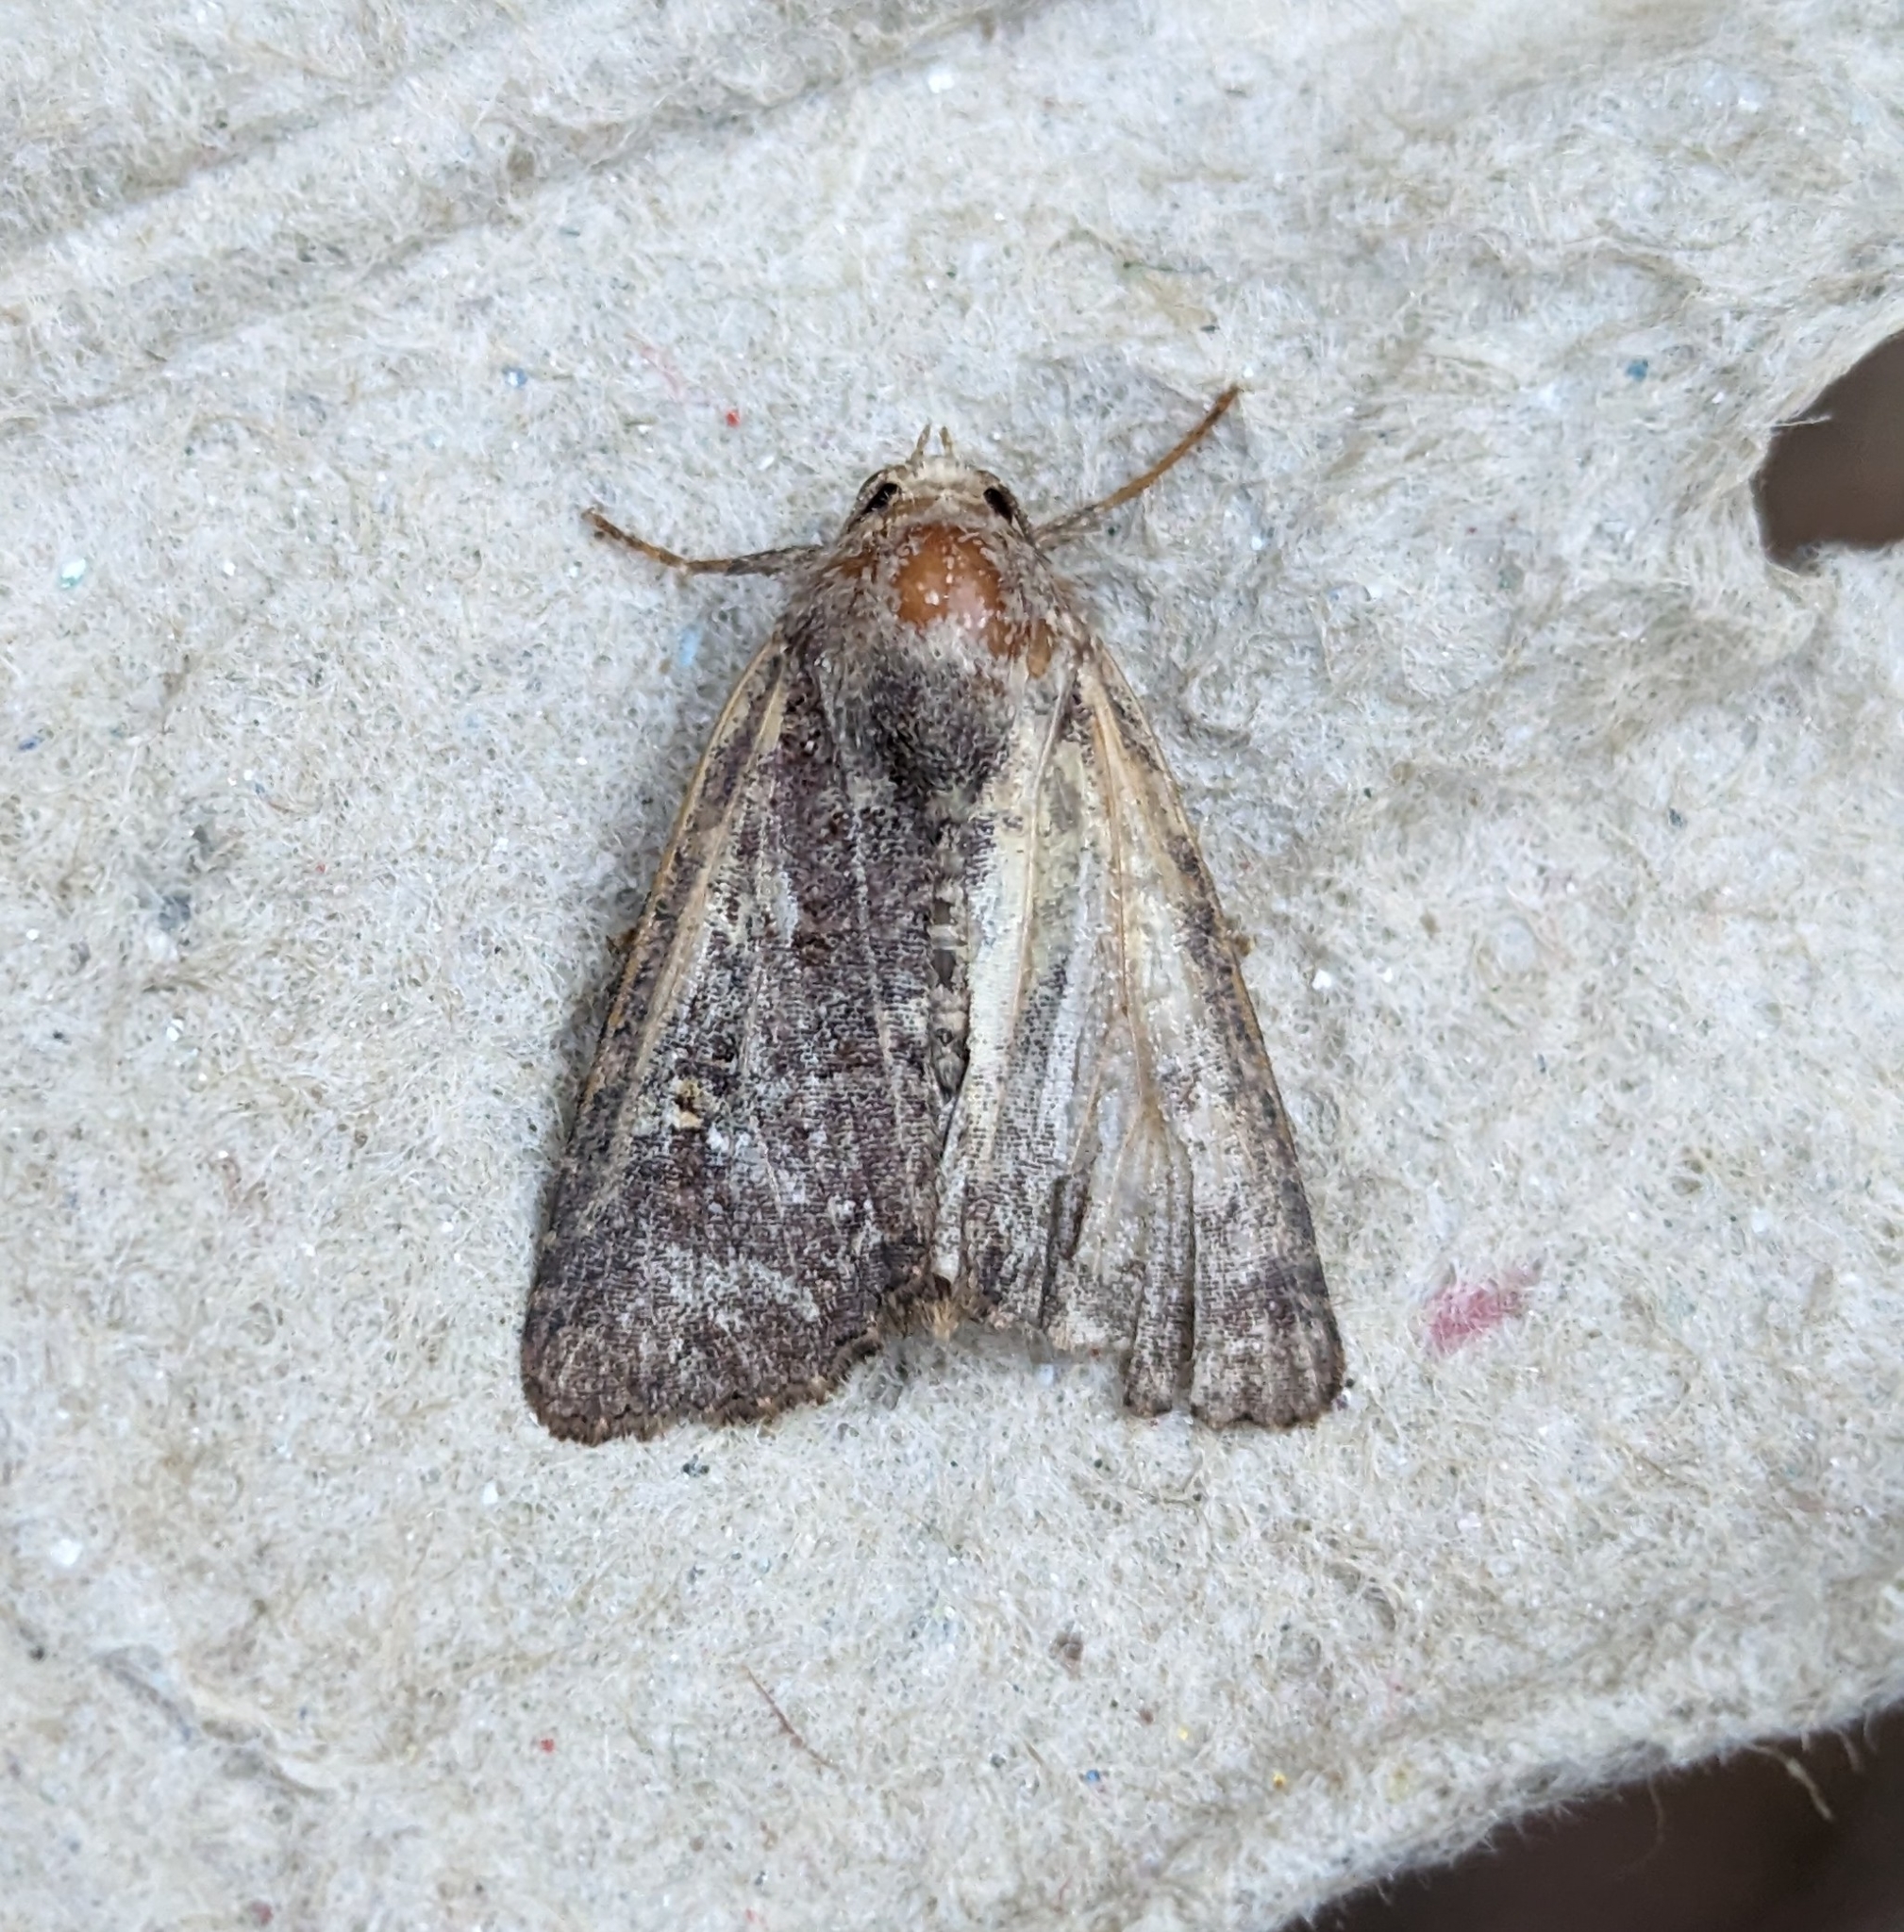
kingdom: Animalia
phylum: Arthropoda
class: Insecta
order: Lepidoptera
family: Noctuidae
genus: Mesapamea
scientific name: Mesapamea secalis
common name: Common rustic
